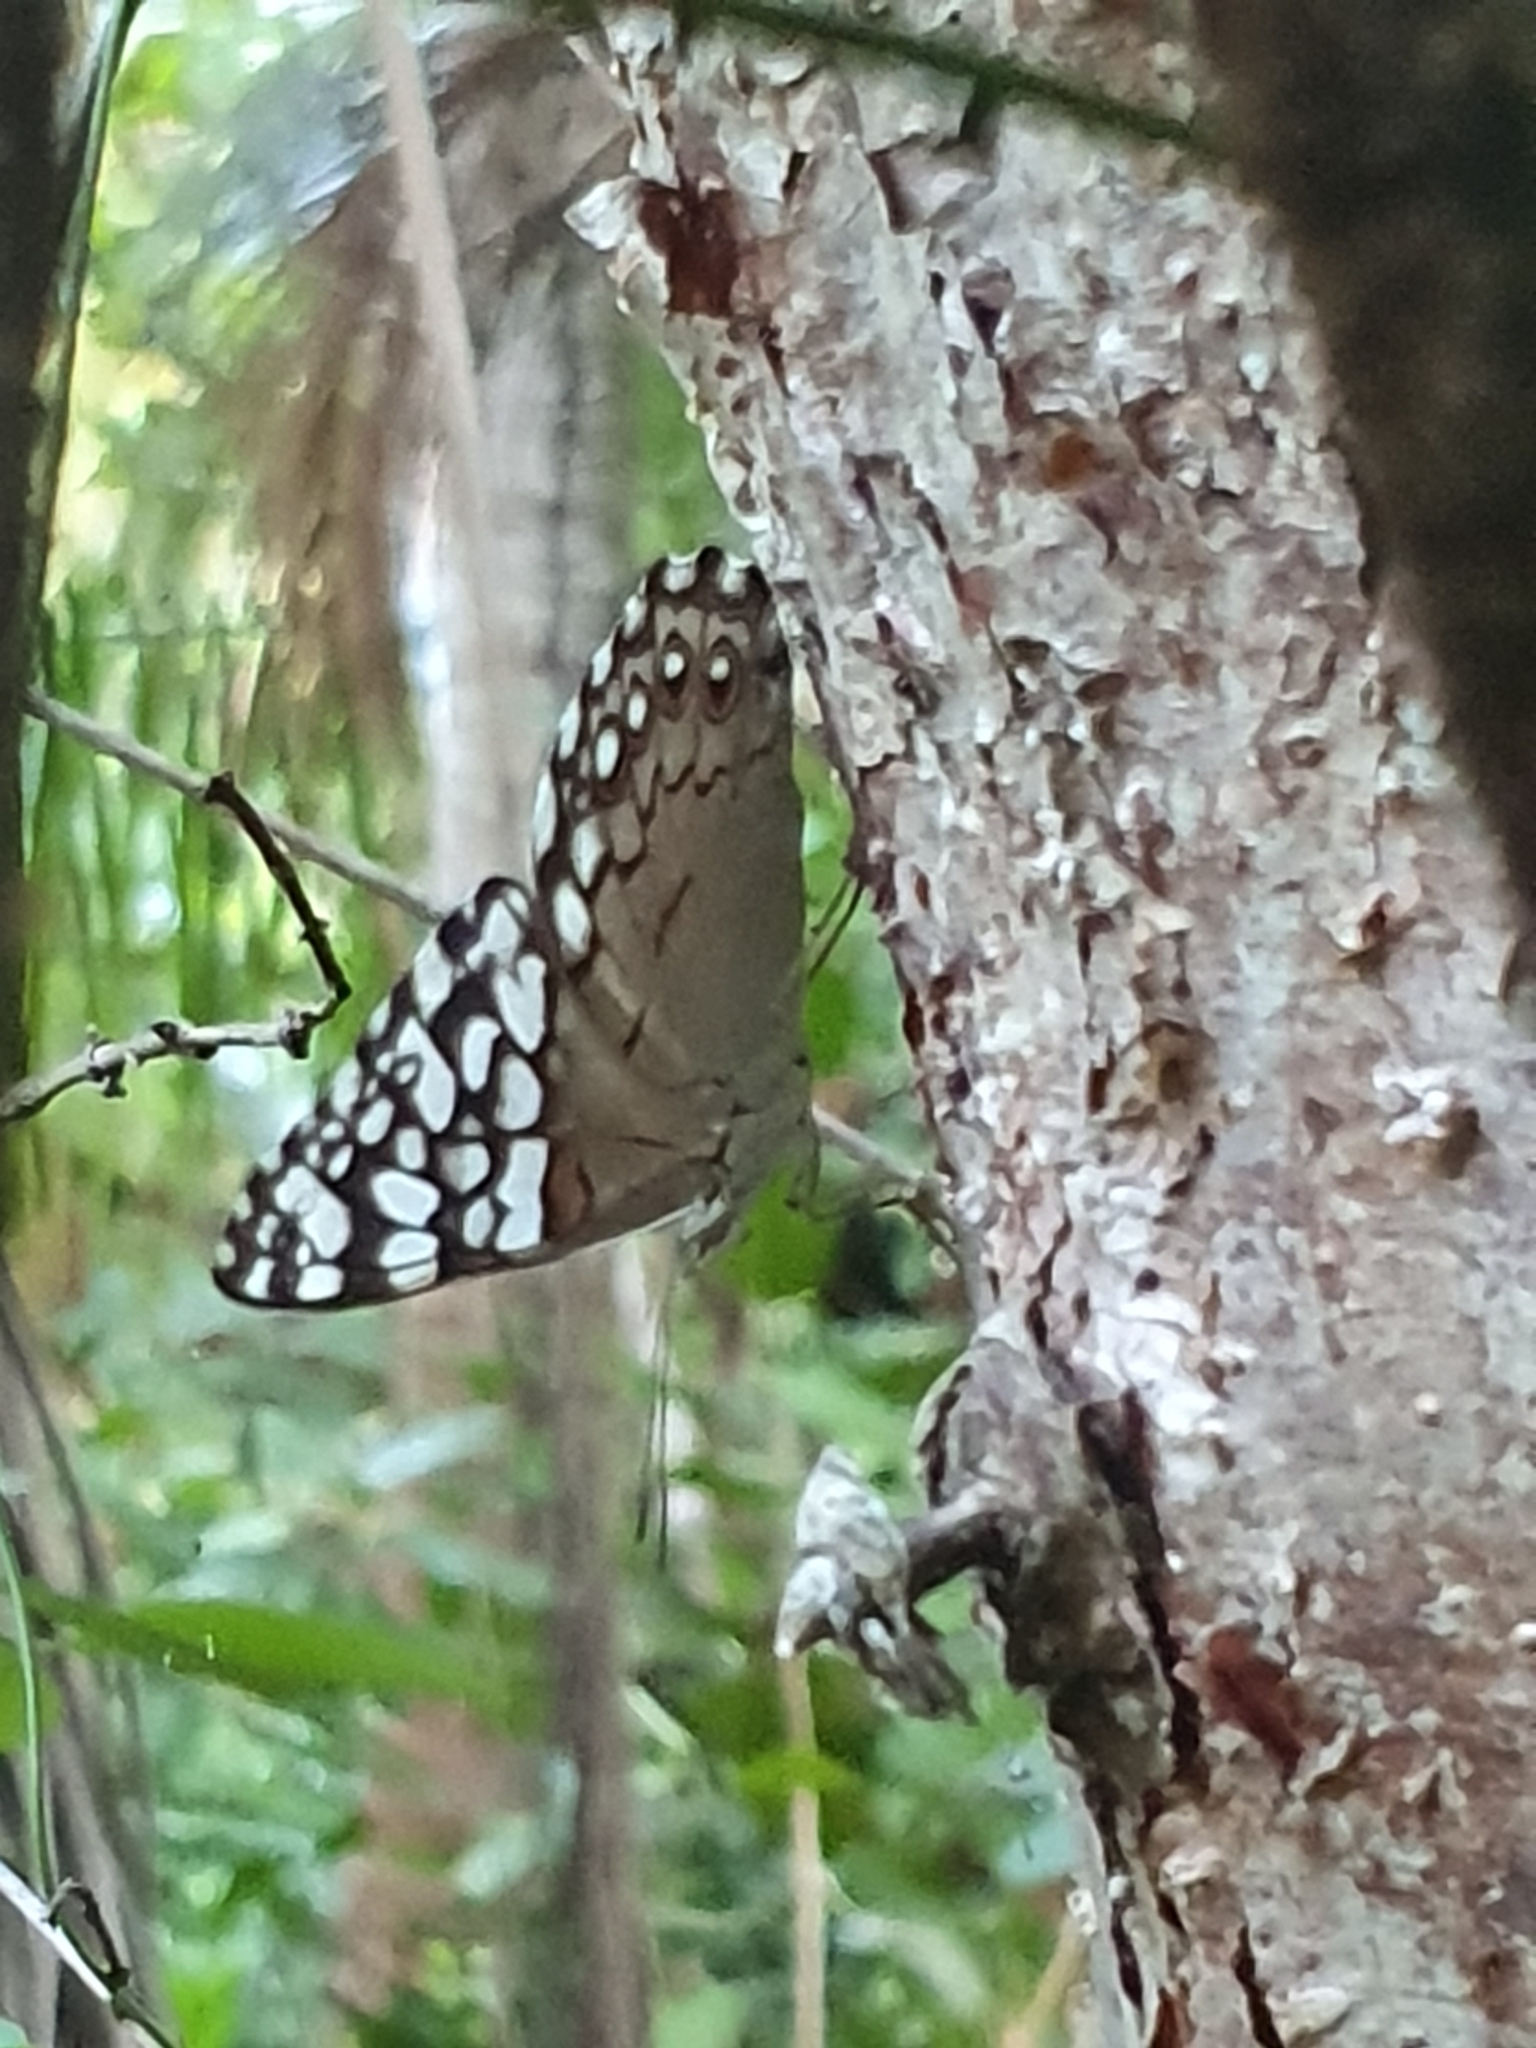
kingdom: Animalia
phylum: Arthropoda
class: Insecta
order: Lepidoptera
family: Nymphalidae
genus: Hamadryas
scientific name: Hamadryas februa
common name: Gray cracker
